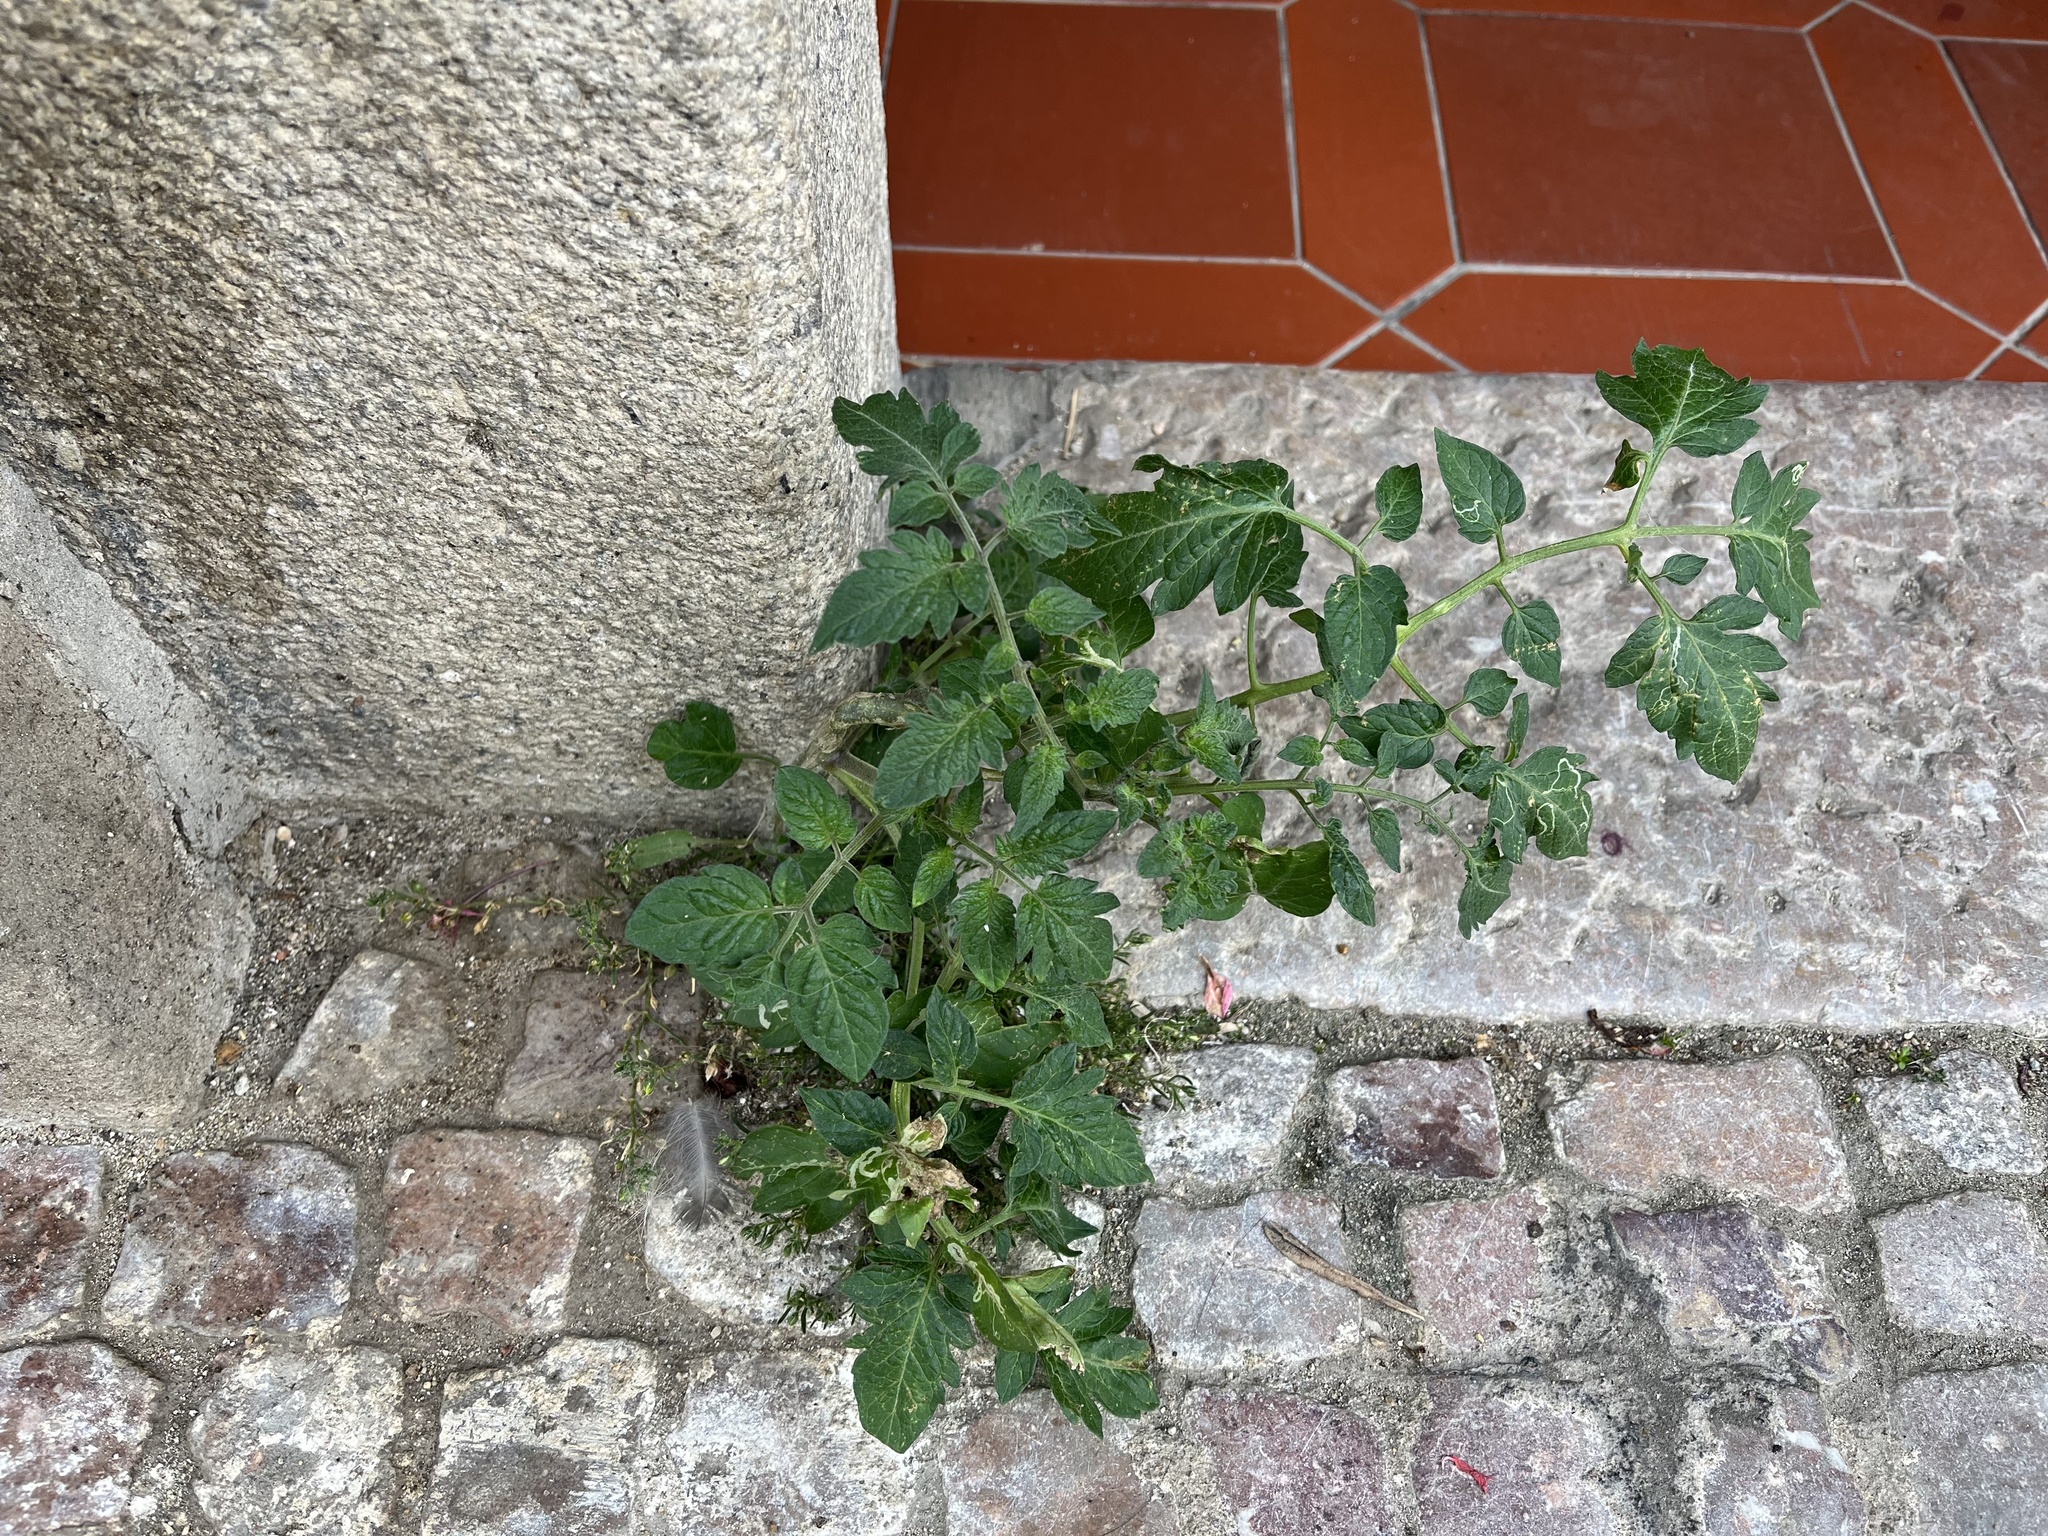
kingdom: Plantae
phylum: Tracheophyta
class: Magnoliopsida
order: Solanales
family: Solanaceae
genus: Solanum
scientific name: Solanum lycopersicum
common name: Garden tomato
